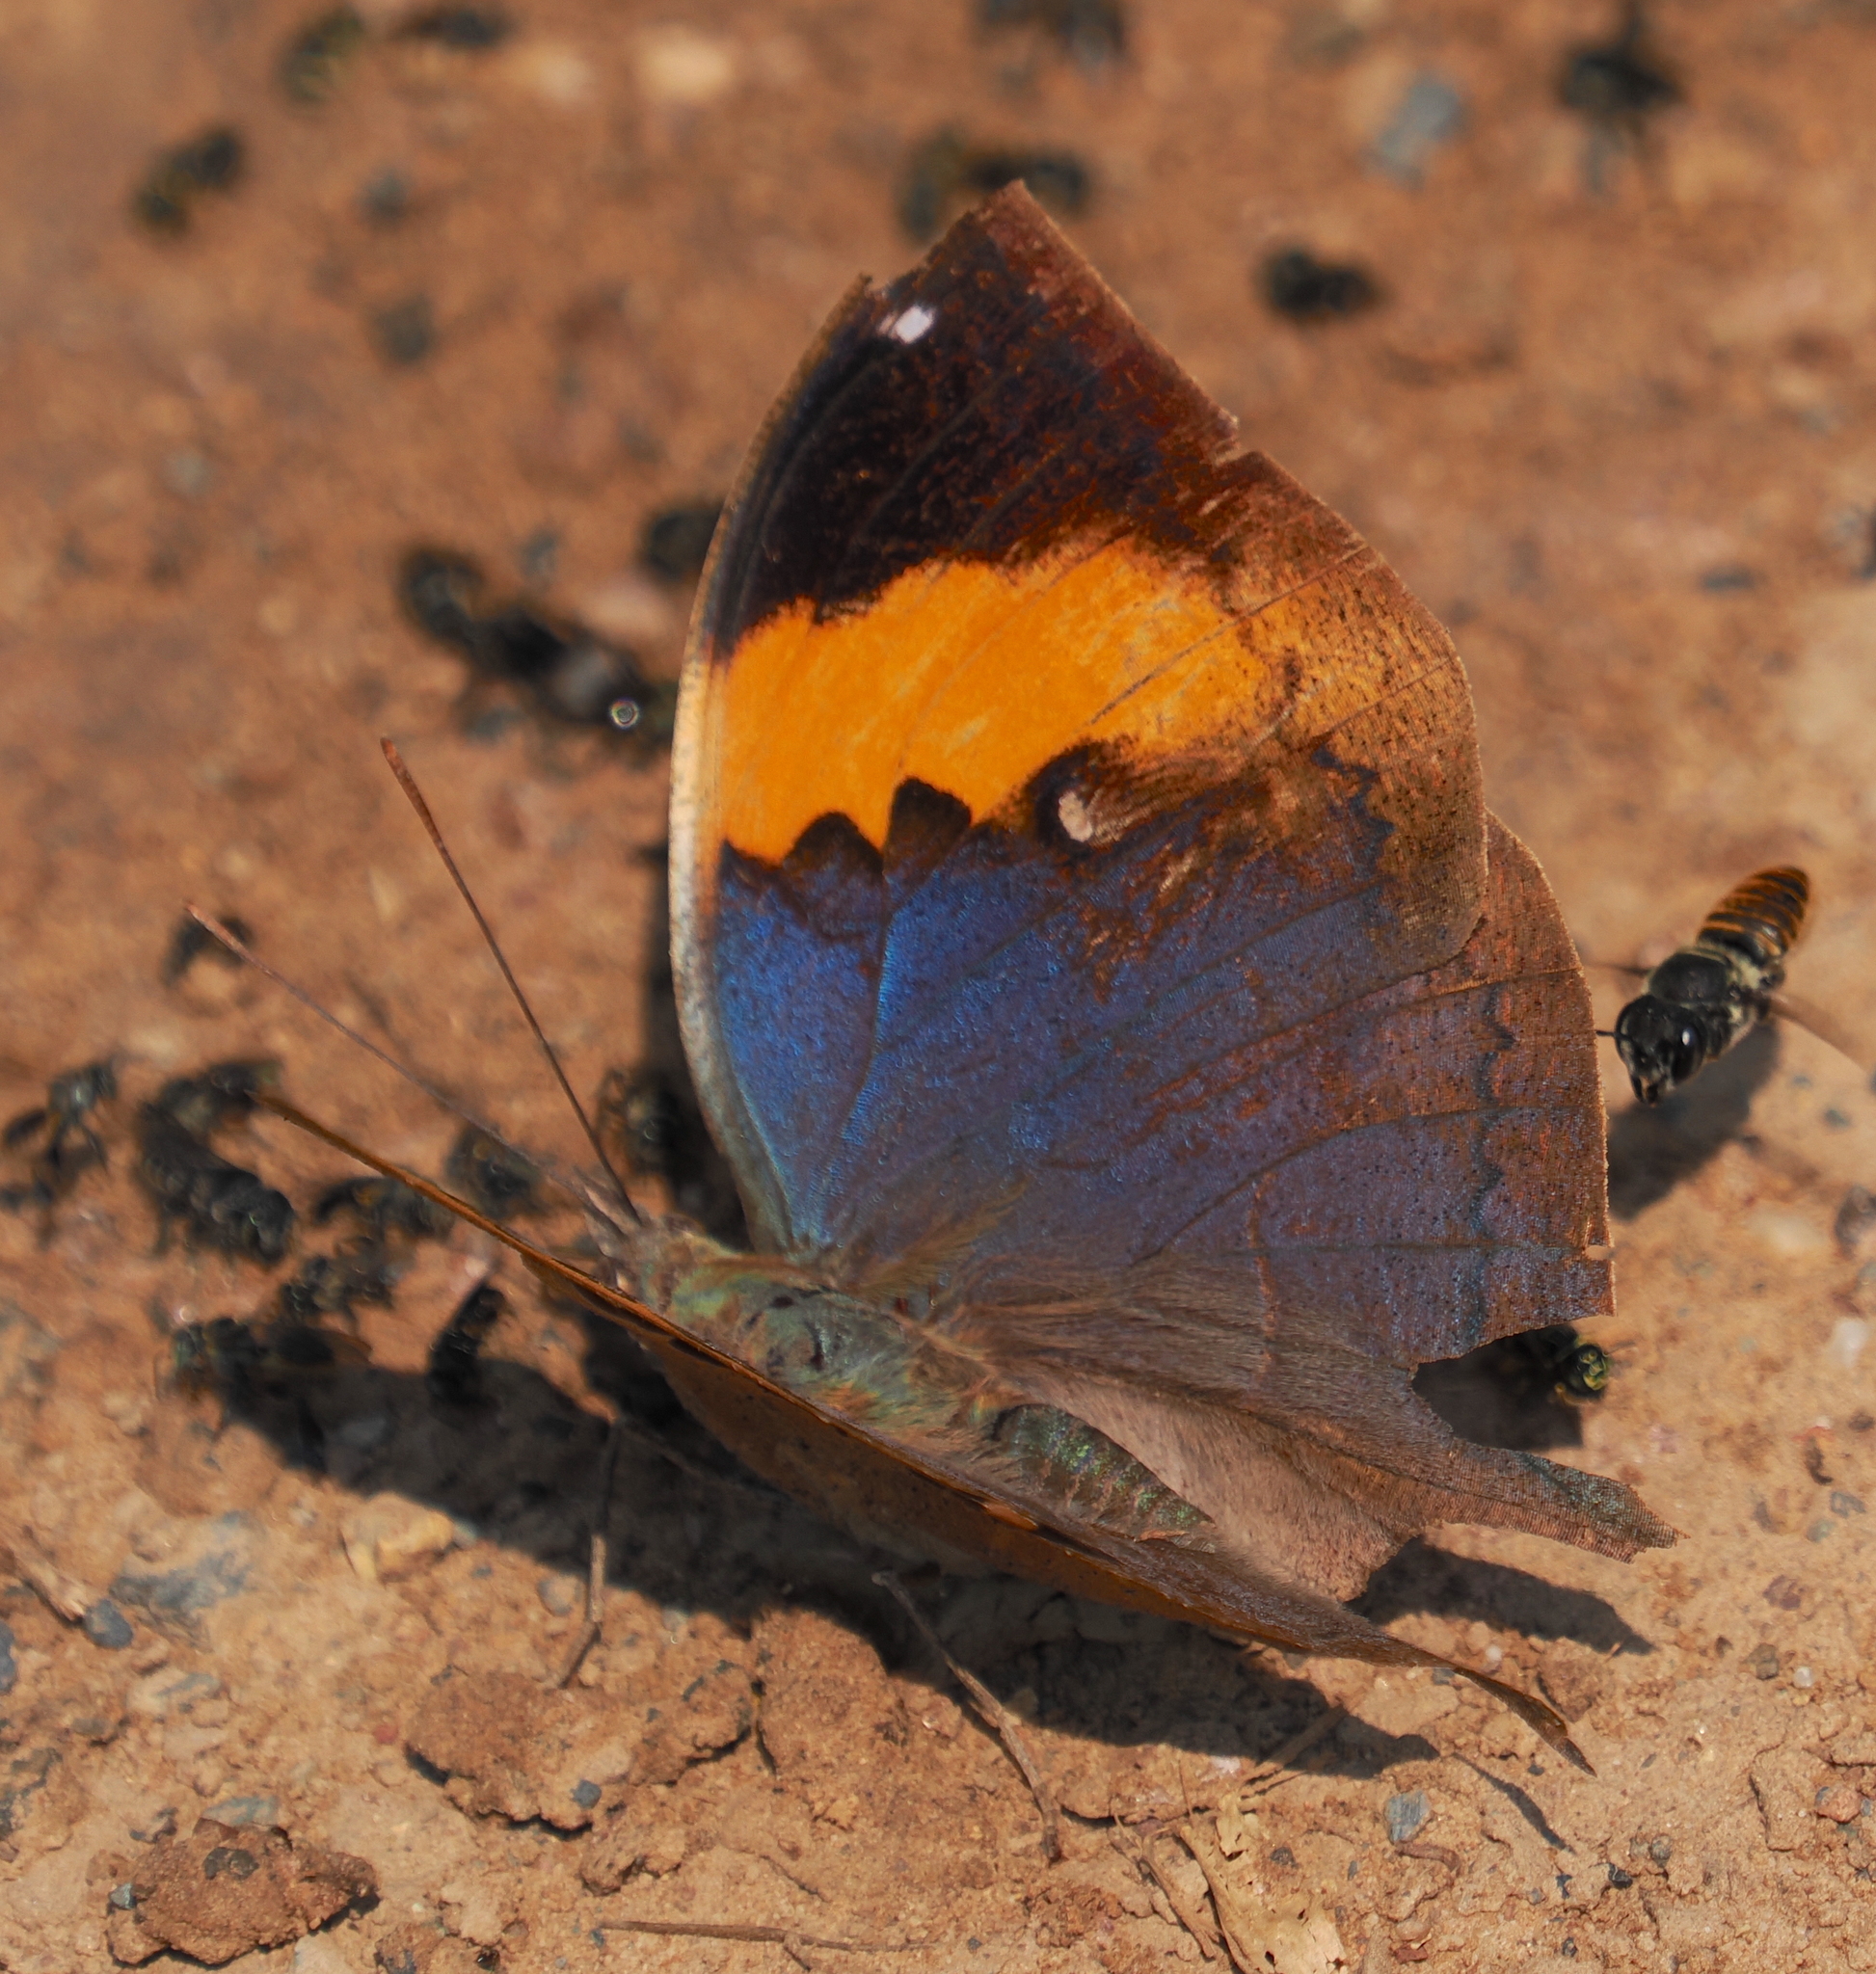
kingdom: Animalia
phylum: Arthropoda
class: Insecta
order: Lepidoptera
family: Nymphalidae
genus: Kallima
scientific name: Kallima inachus
